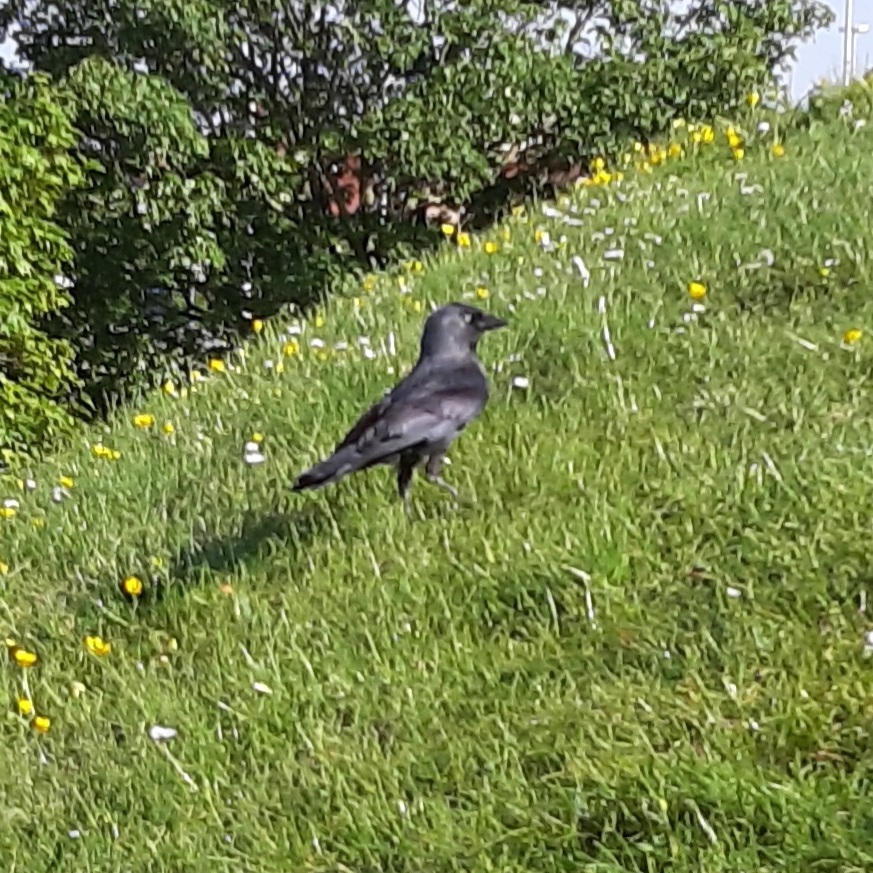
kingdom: Animalia
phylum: Chordata
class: Aves
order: Passeriformes
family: Corvidae
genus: Coloeus
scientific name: Coloeus monedula
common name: Western jackdaw
